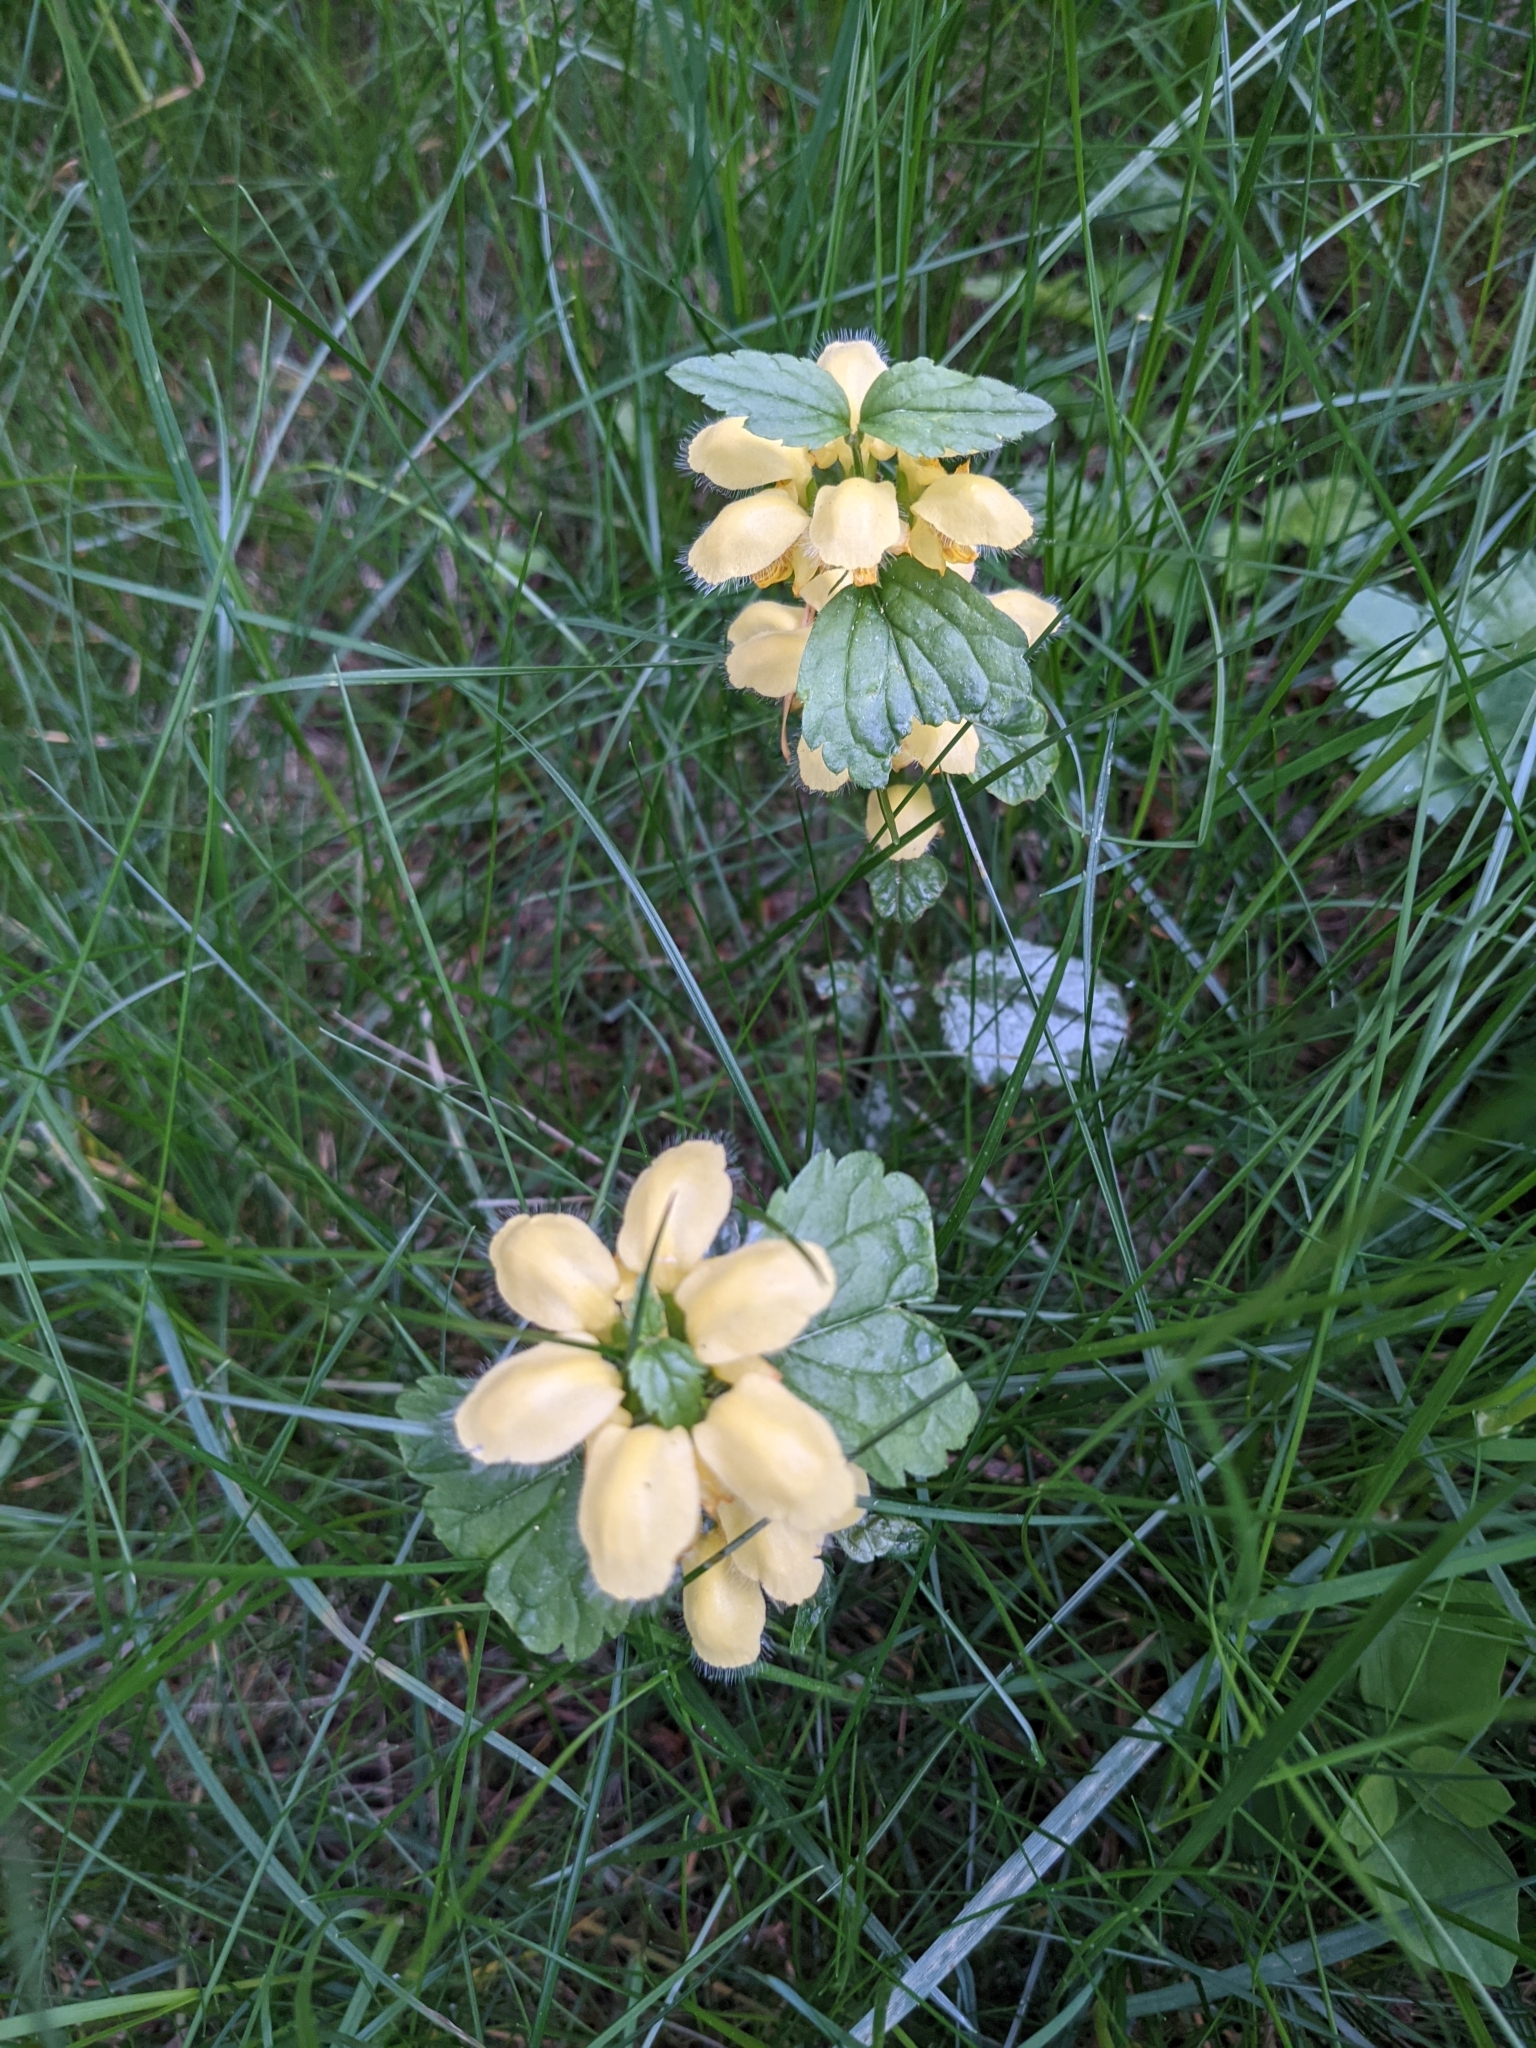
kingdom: Plantae
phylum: Tracheophyta
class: Magnoliopsida
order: Lamiales
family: Lamiaceae
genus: Lamium
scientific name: Lamium galeobdolon
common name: Yellow archangel
